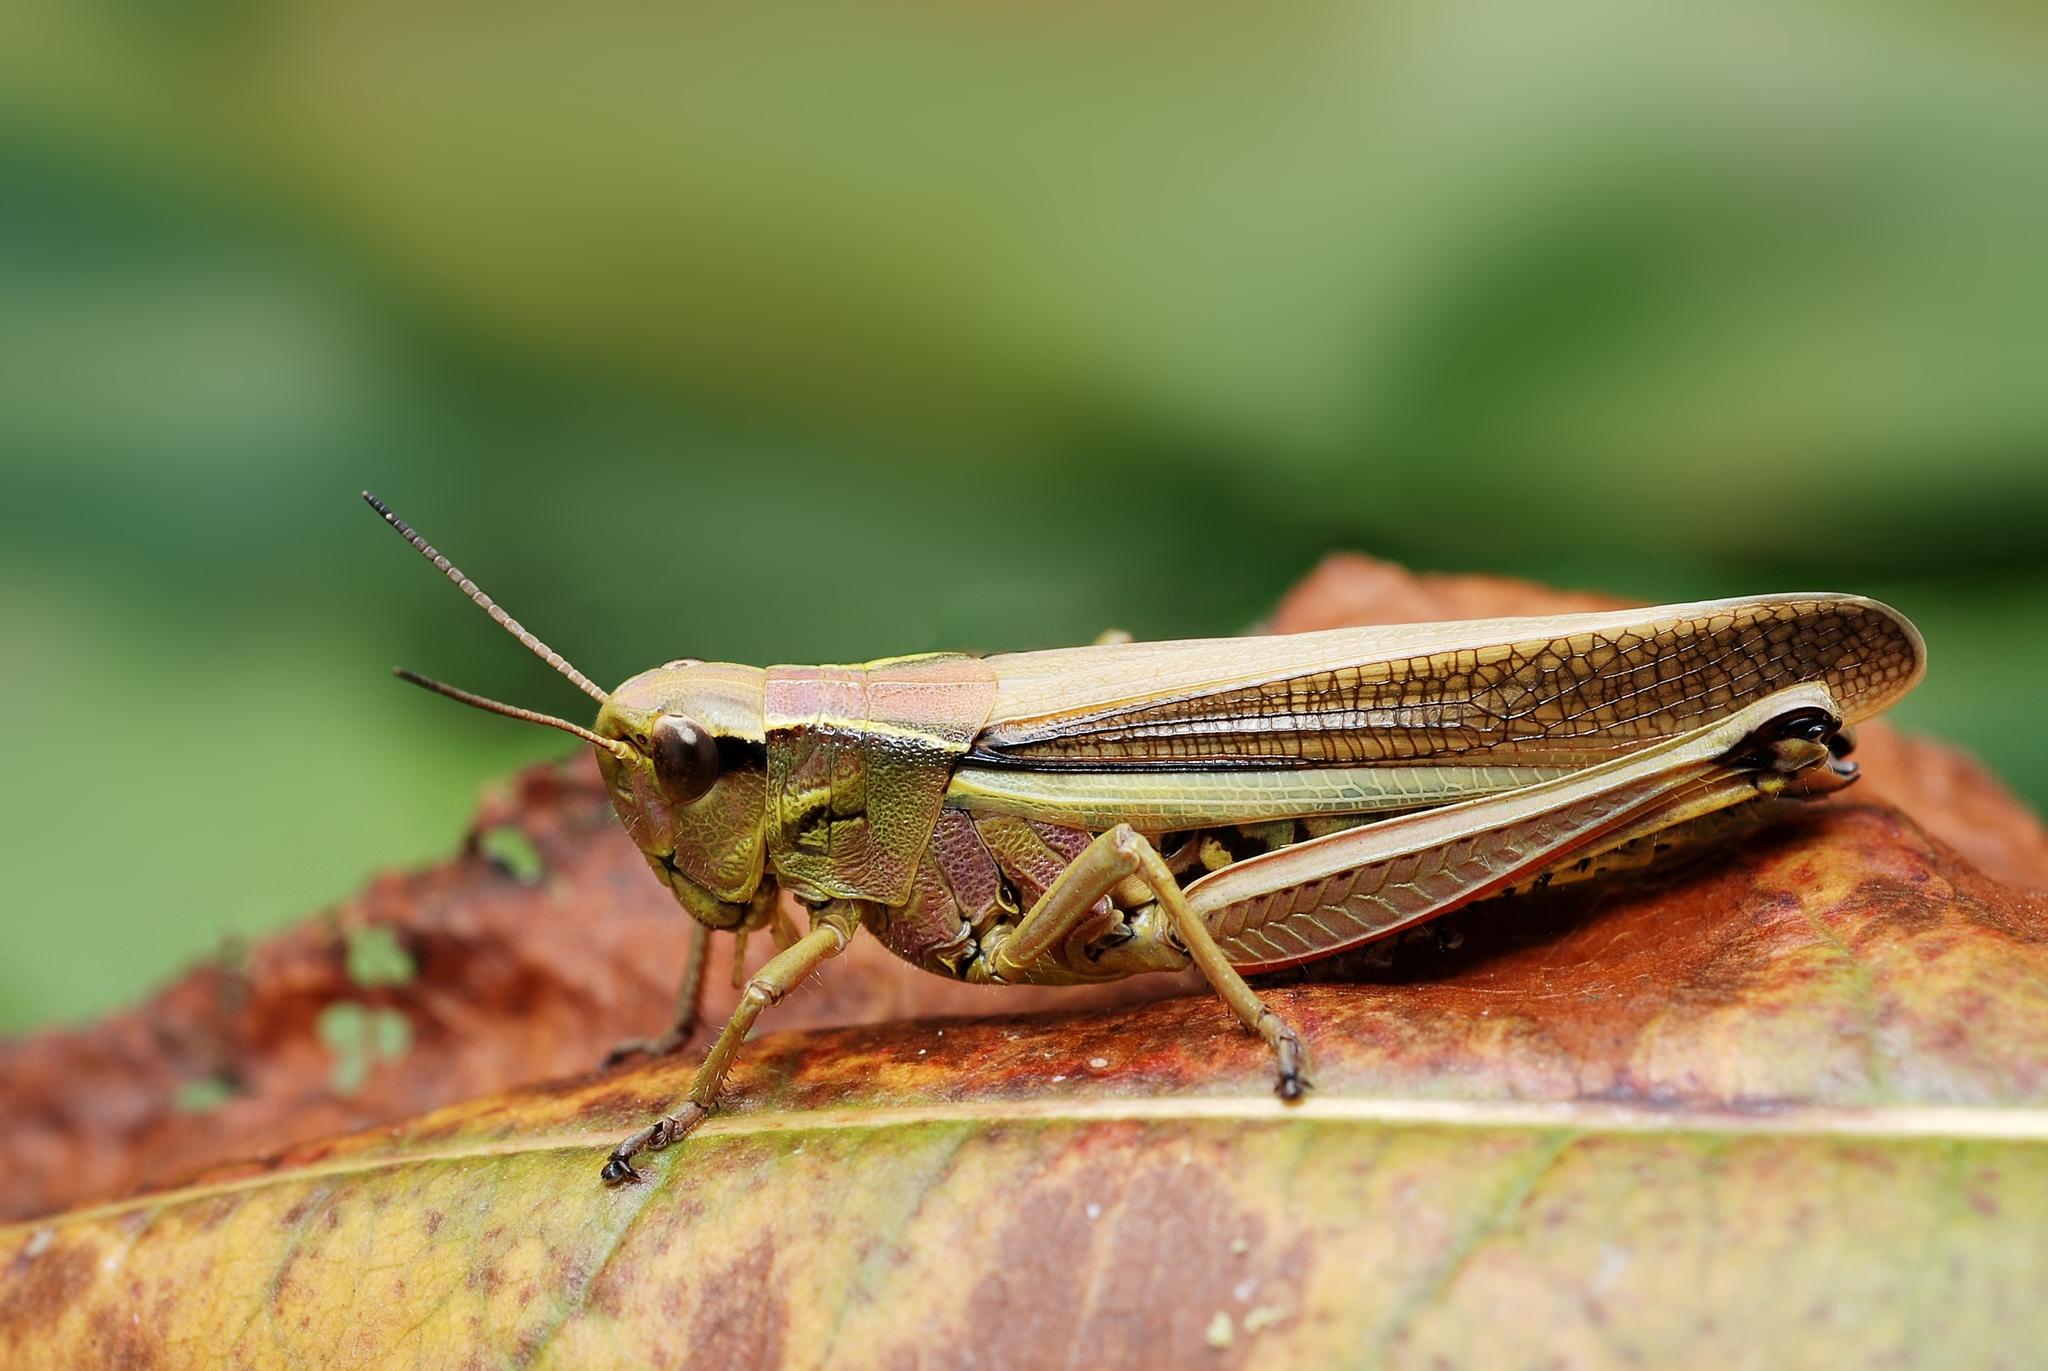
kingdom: Animalia
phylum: Arthropoda
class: Insecta
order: Orthoptera
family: Acrididae
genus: Stethophyma
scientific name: Stethophyma grossum
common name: Large marsh grasshopper
